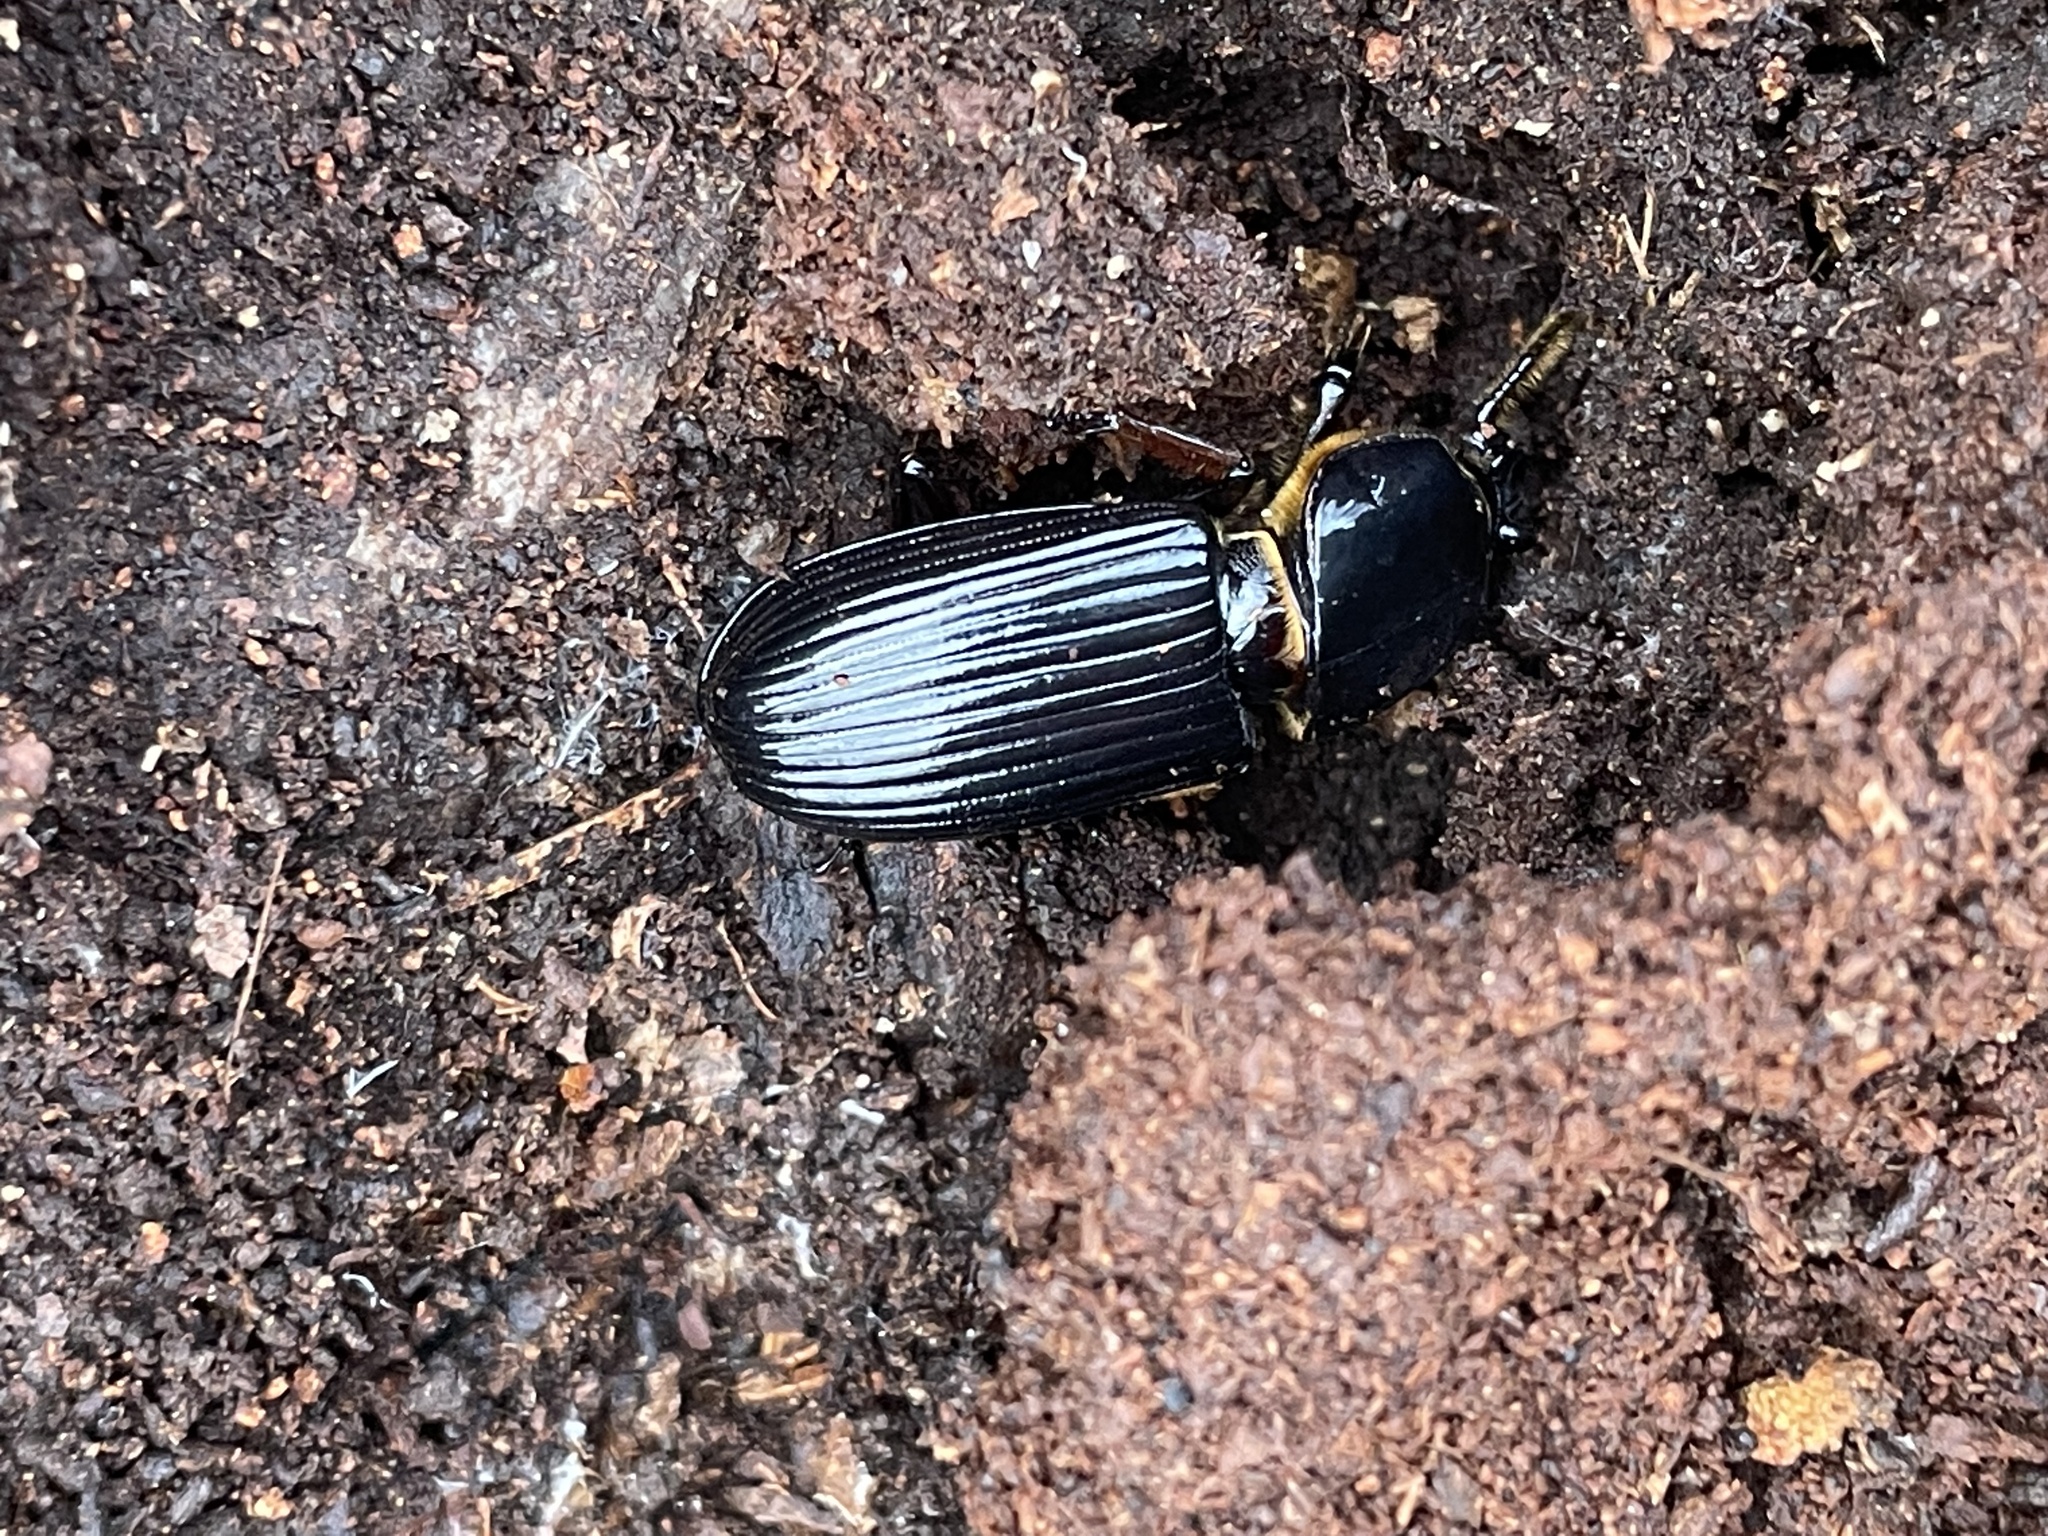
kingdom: Animalia
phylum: Arthropoda
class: Insecta
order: Coleoptera
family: Passalidae
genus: Odontotaenius
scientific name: Odontotaenius disjunctus
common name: Patent leather beetle
